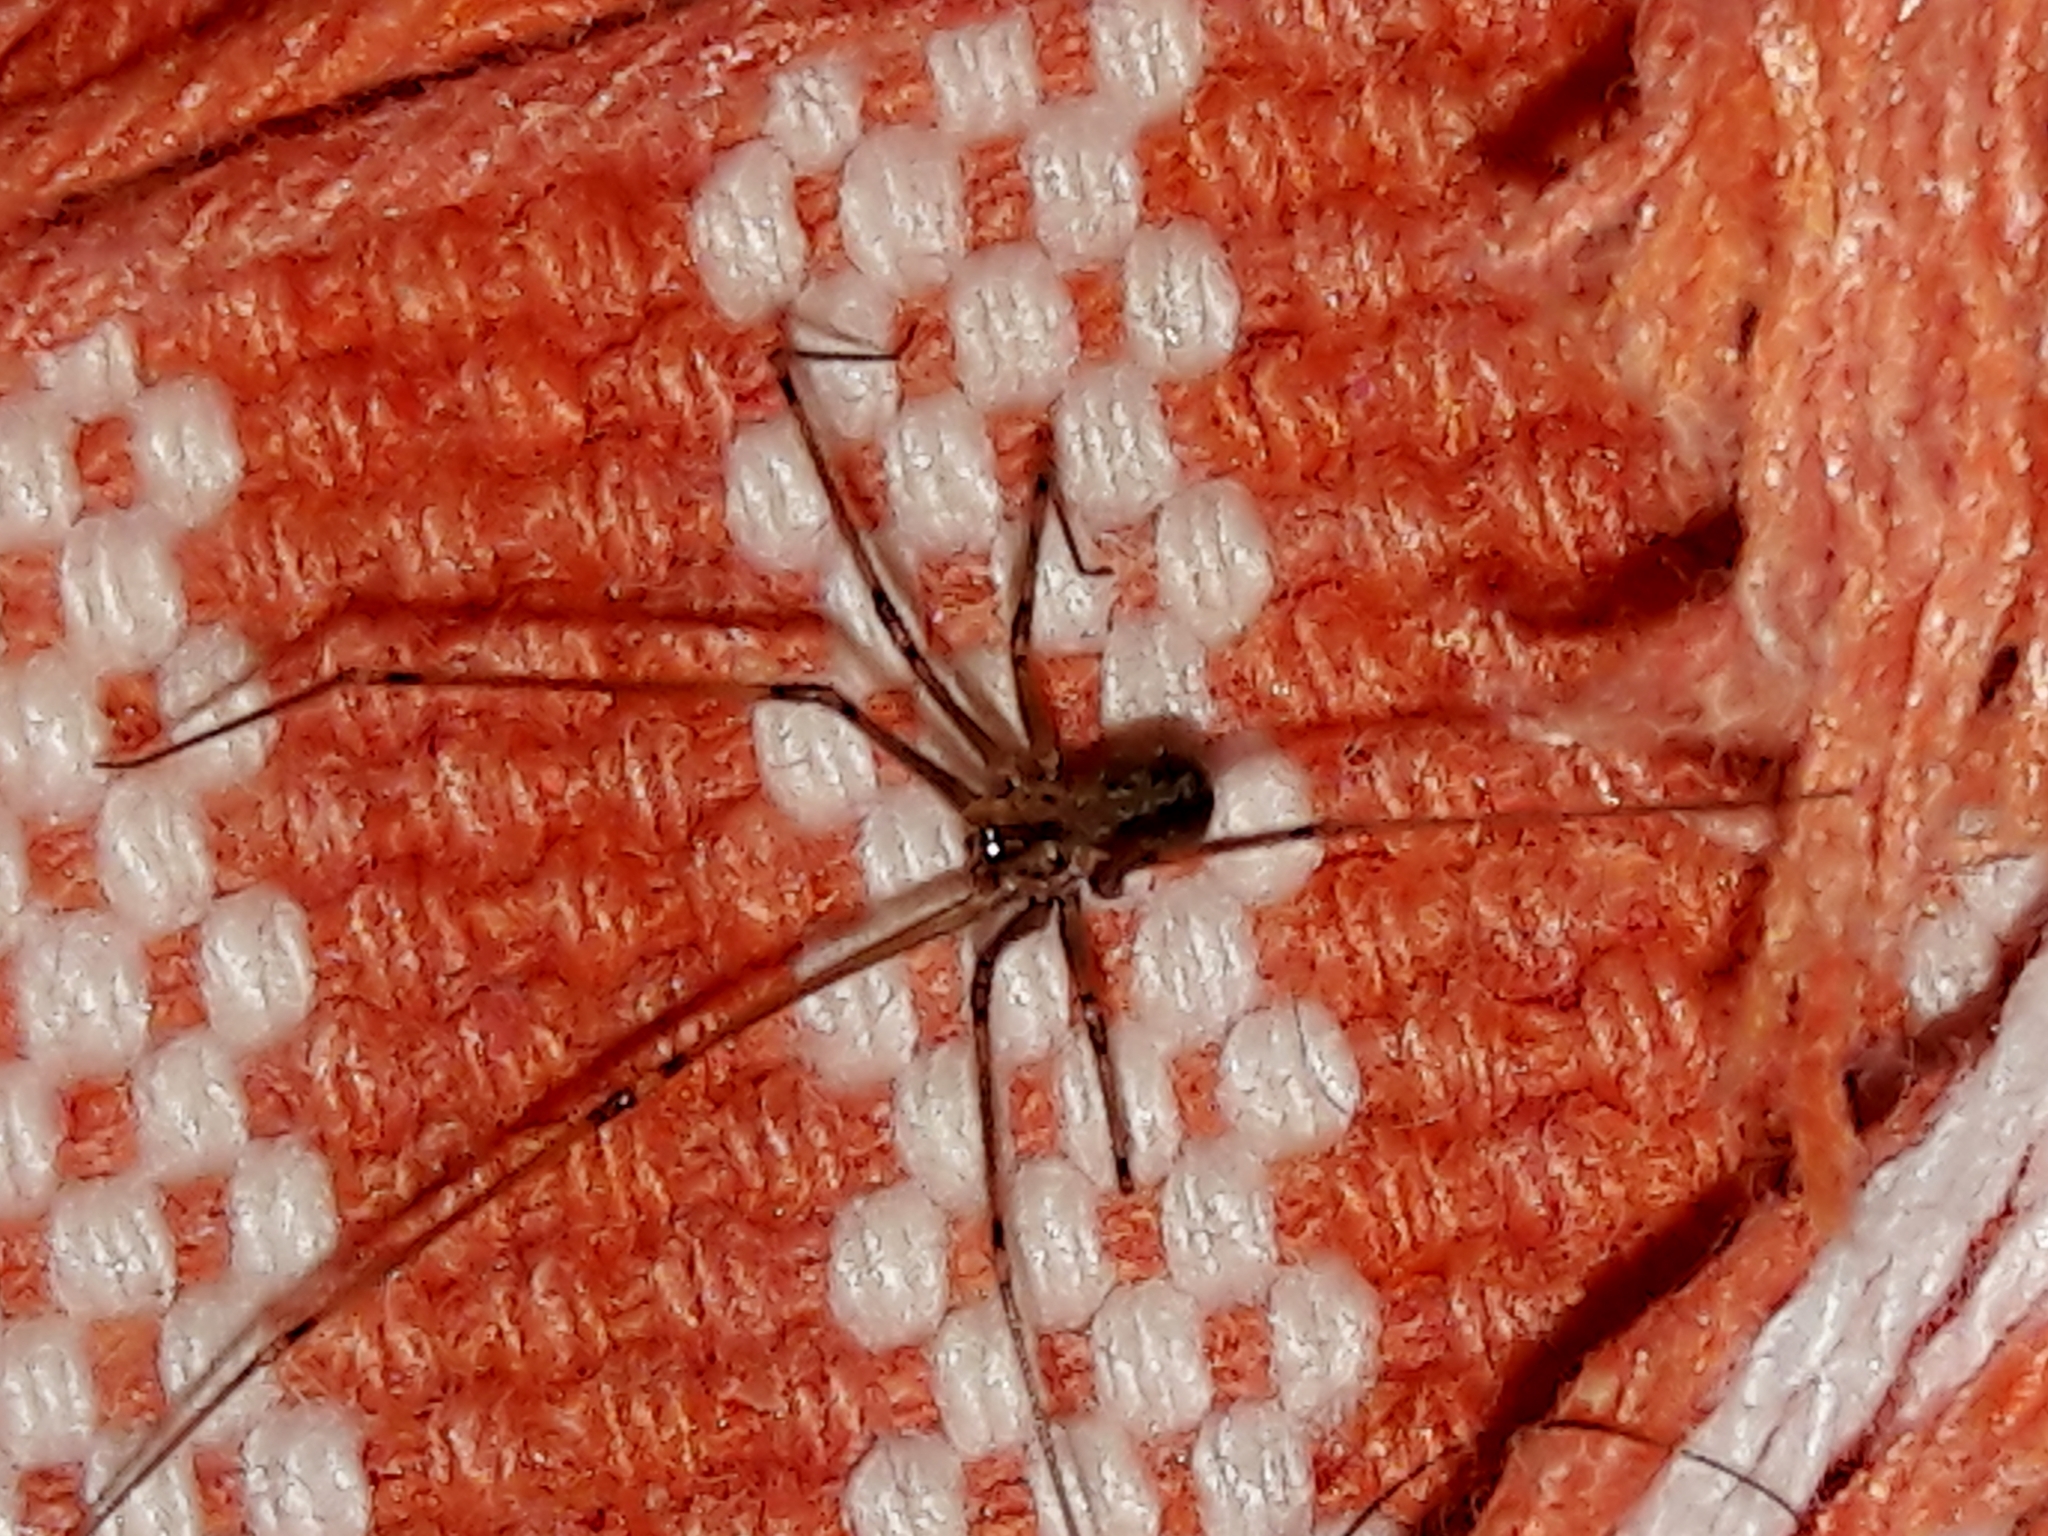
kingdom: Animalia
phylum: Arthropoda
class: Arachnida
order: Araneae
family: Pholcidae
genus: Physocyclus
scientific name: Physocyclus globosus
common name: Cellar spiders
